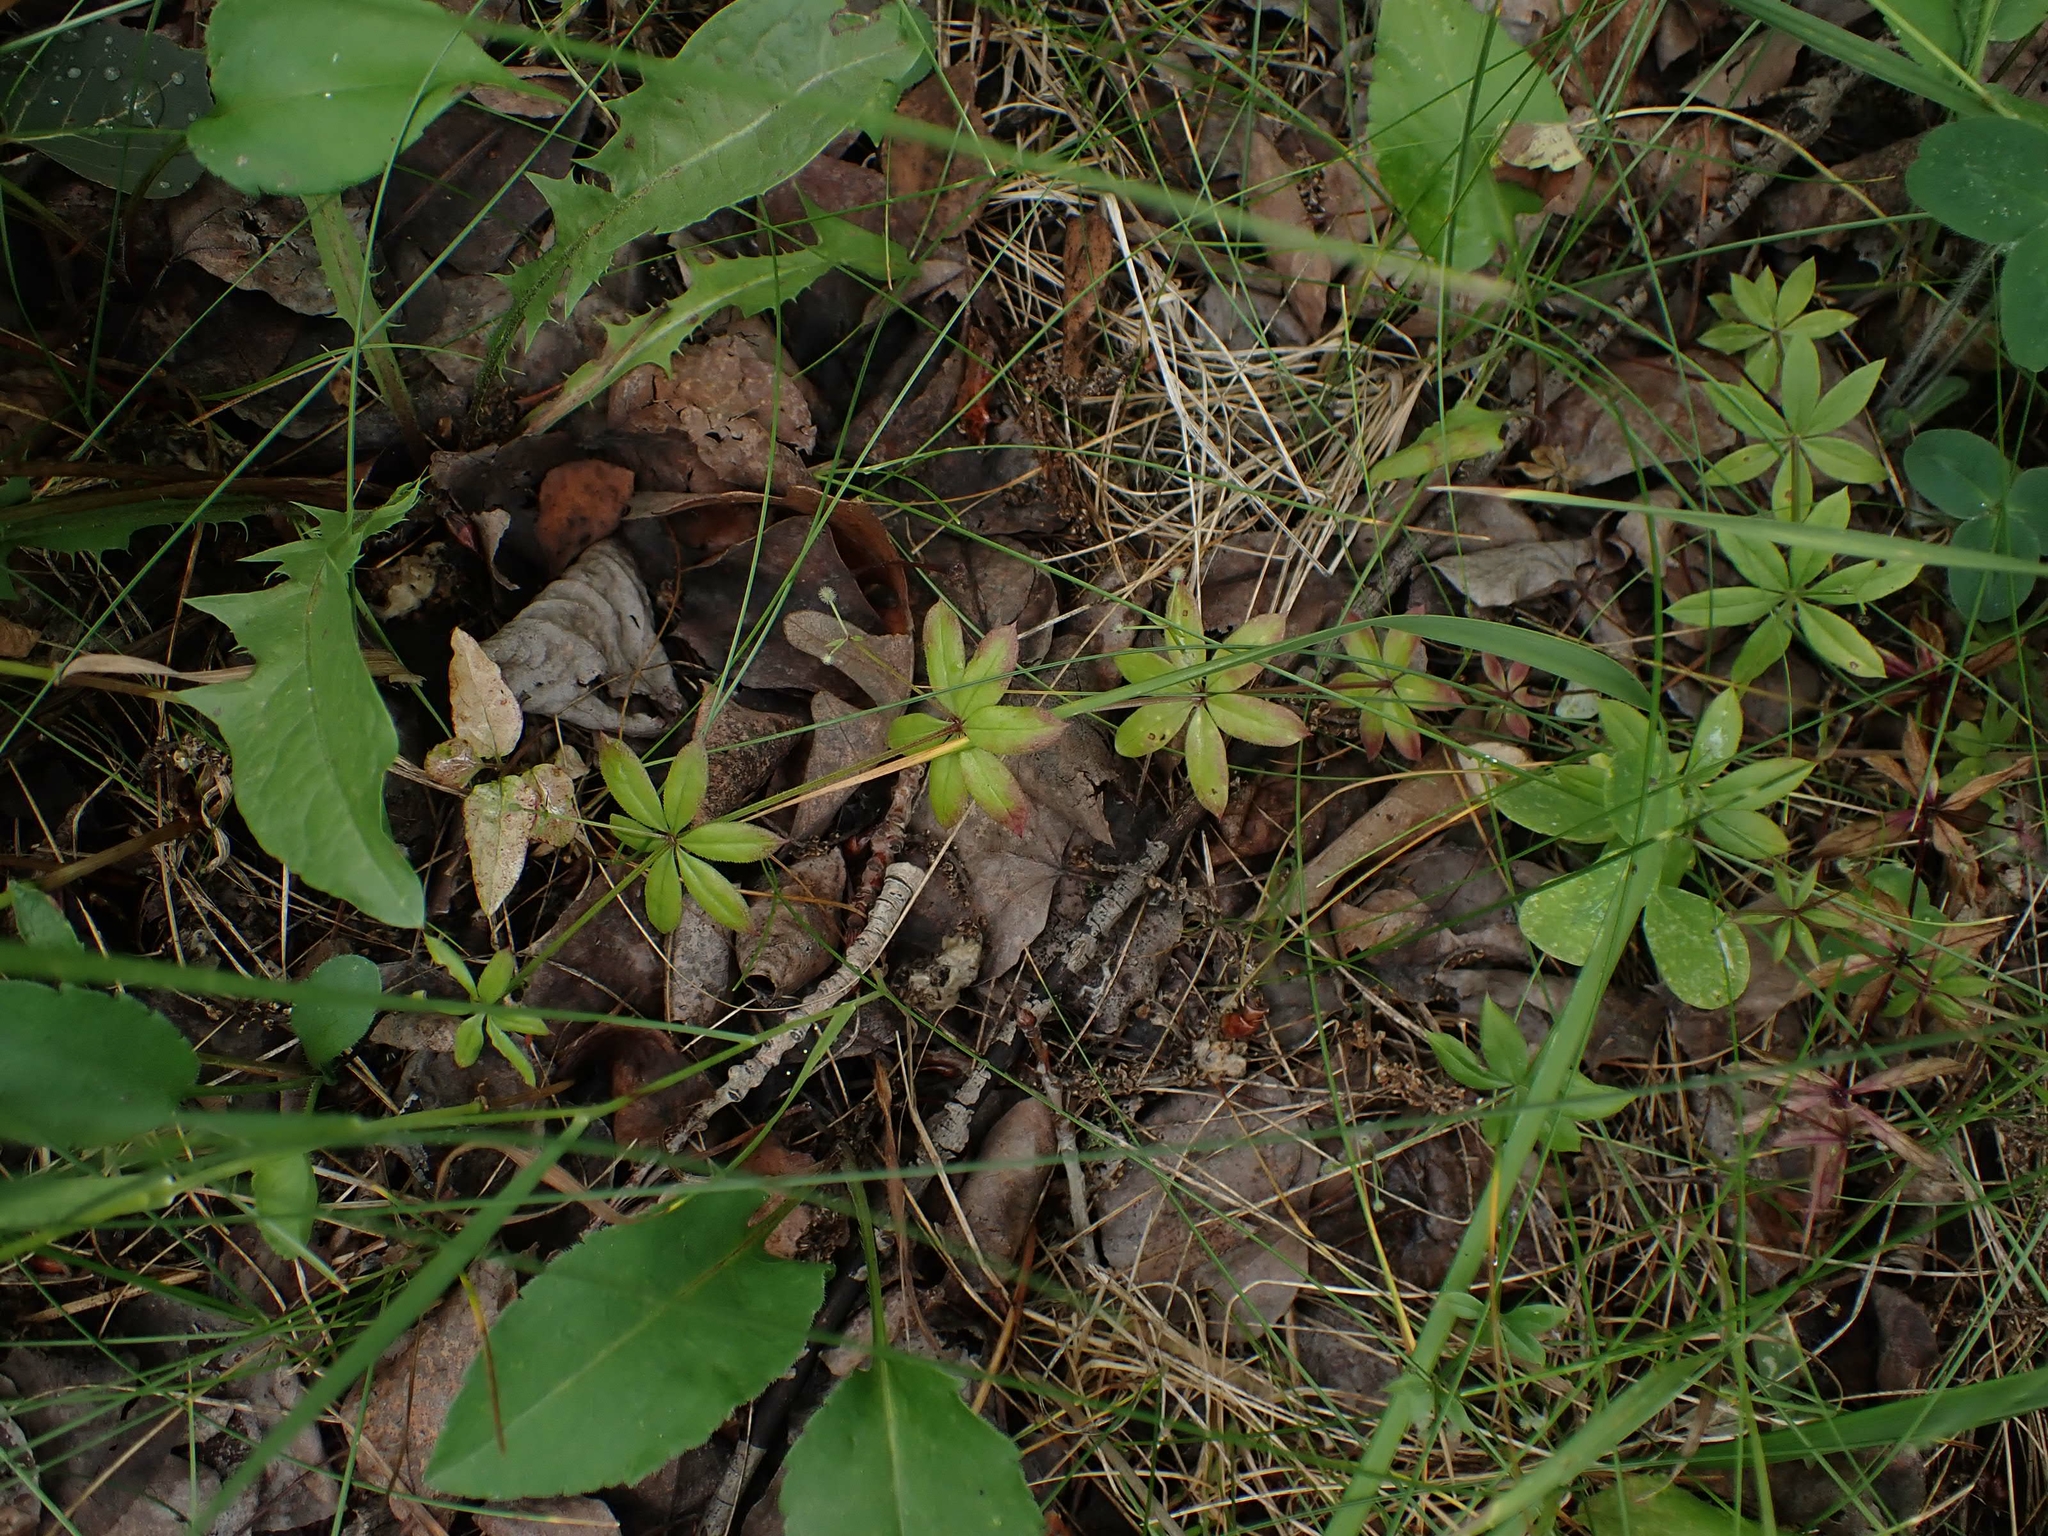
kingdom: Plantae
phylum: Tracheophyta
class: Magnoliopsida
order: Gentianales
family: Rubiaceae
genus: Galium
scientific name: Galium triflorum
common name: Fragrant bedstraw
